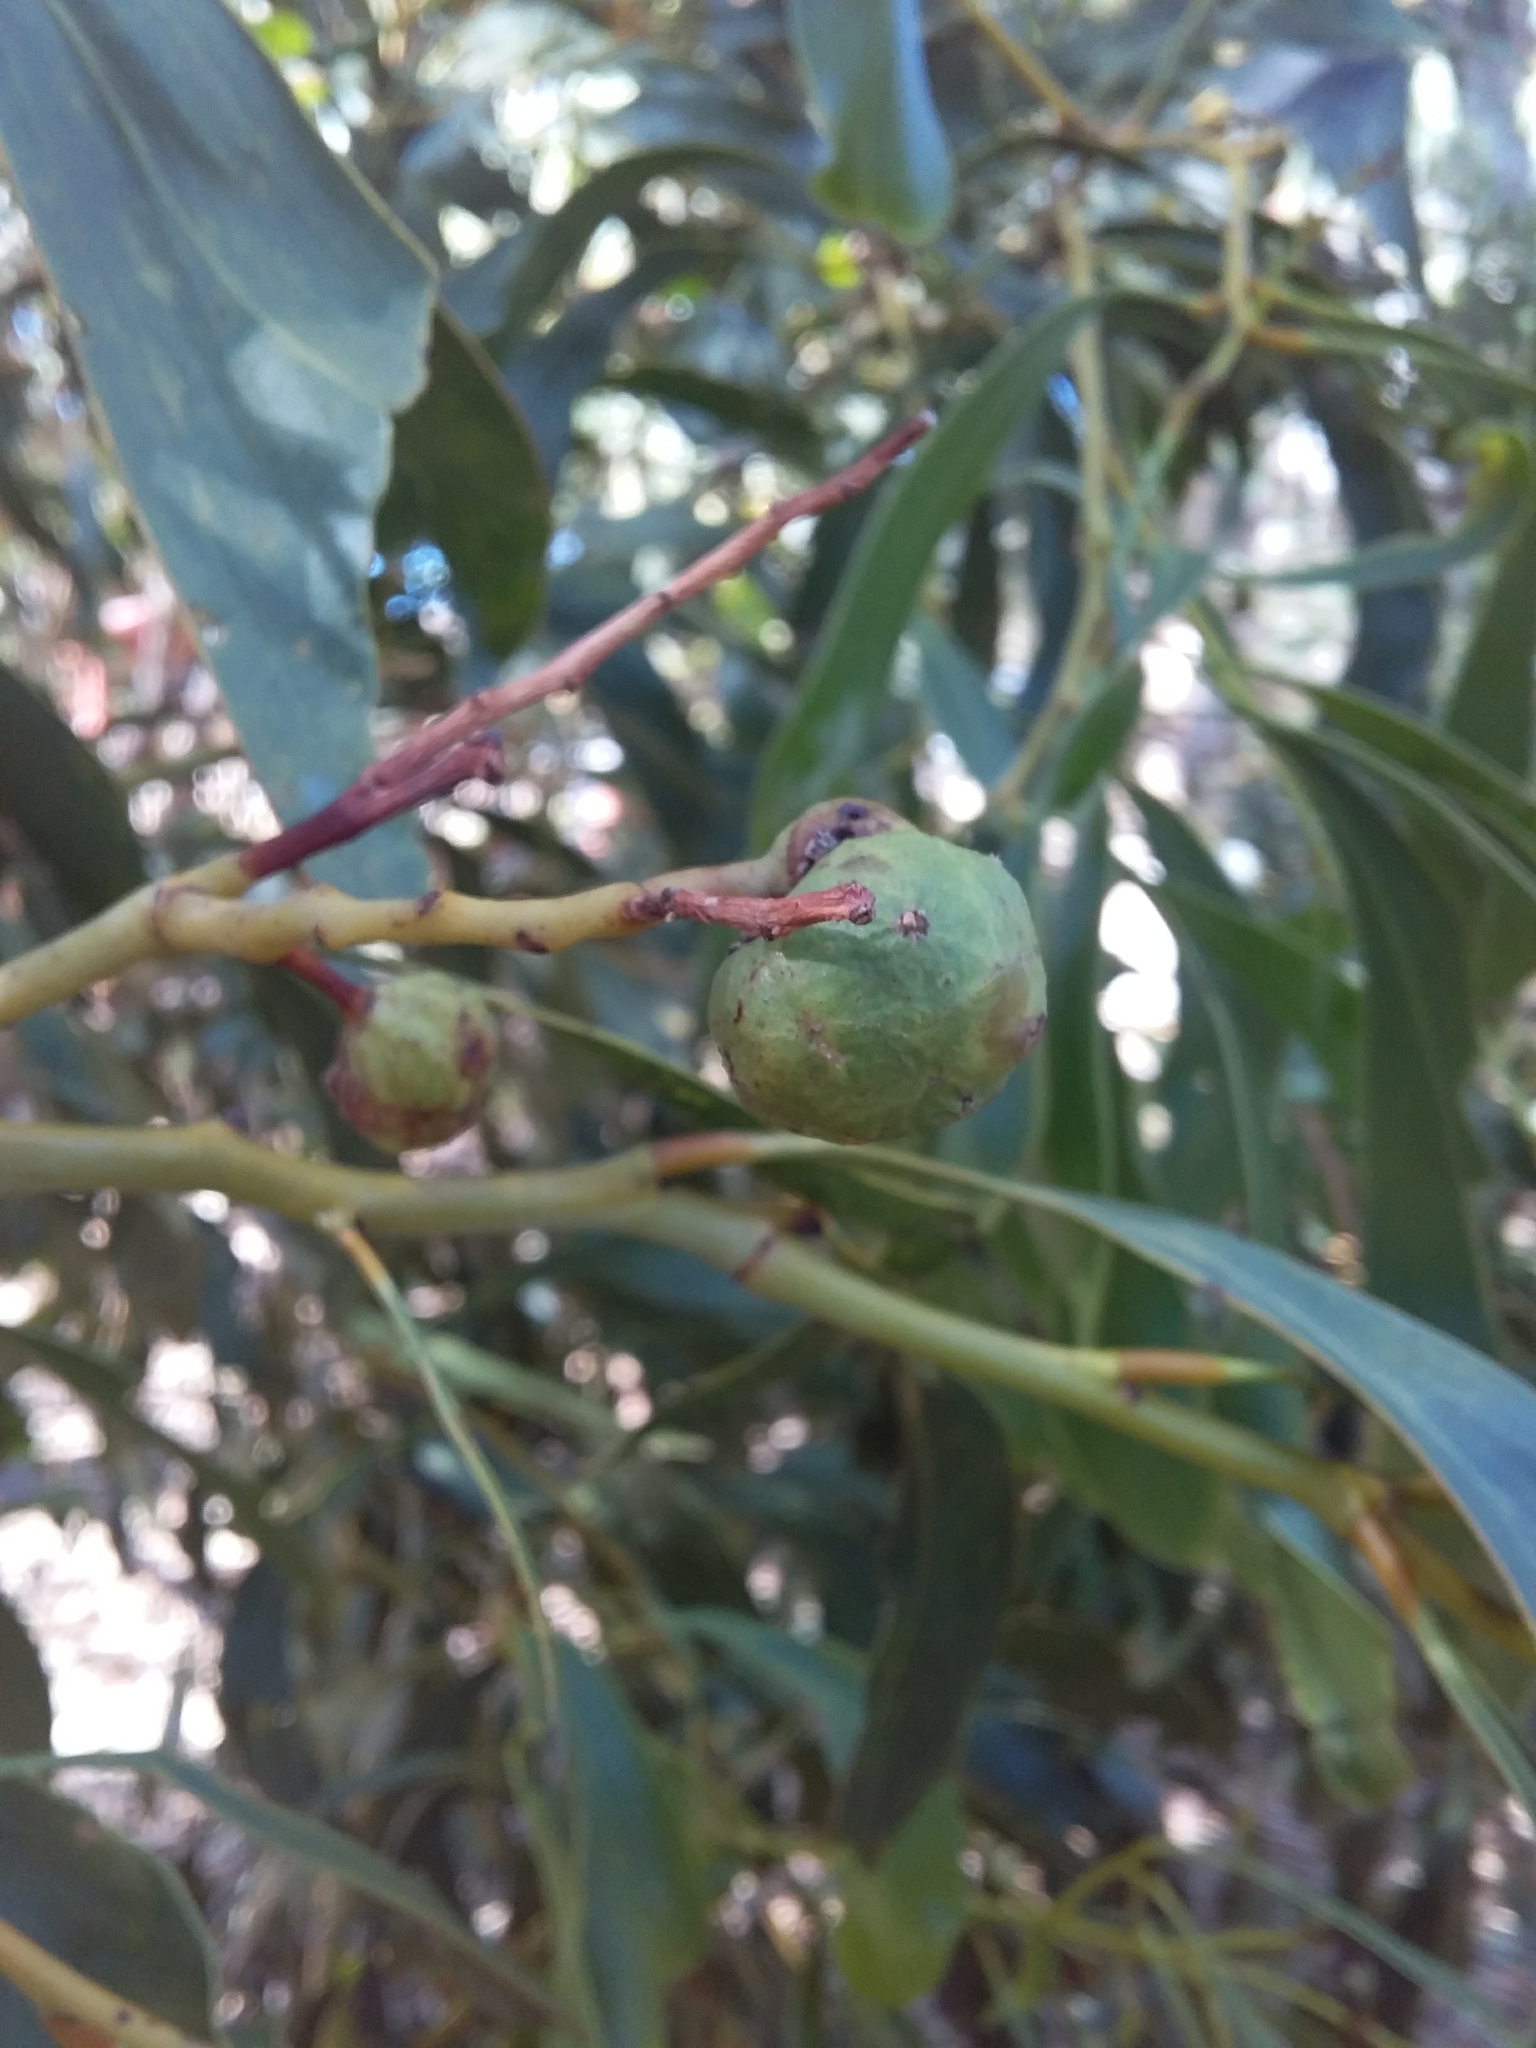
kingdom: Animalia
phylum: Arthropoda
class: Insecta
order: Hymenoptera
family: Pteromalidae
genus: Trichilogaster
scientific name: Trichilogaster signiventris
